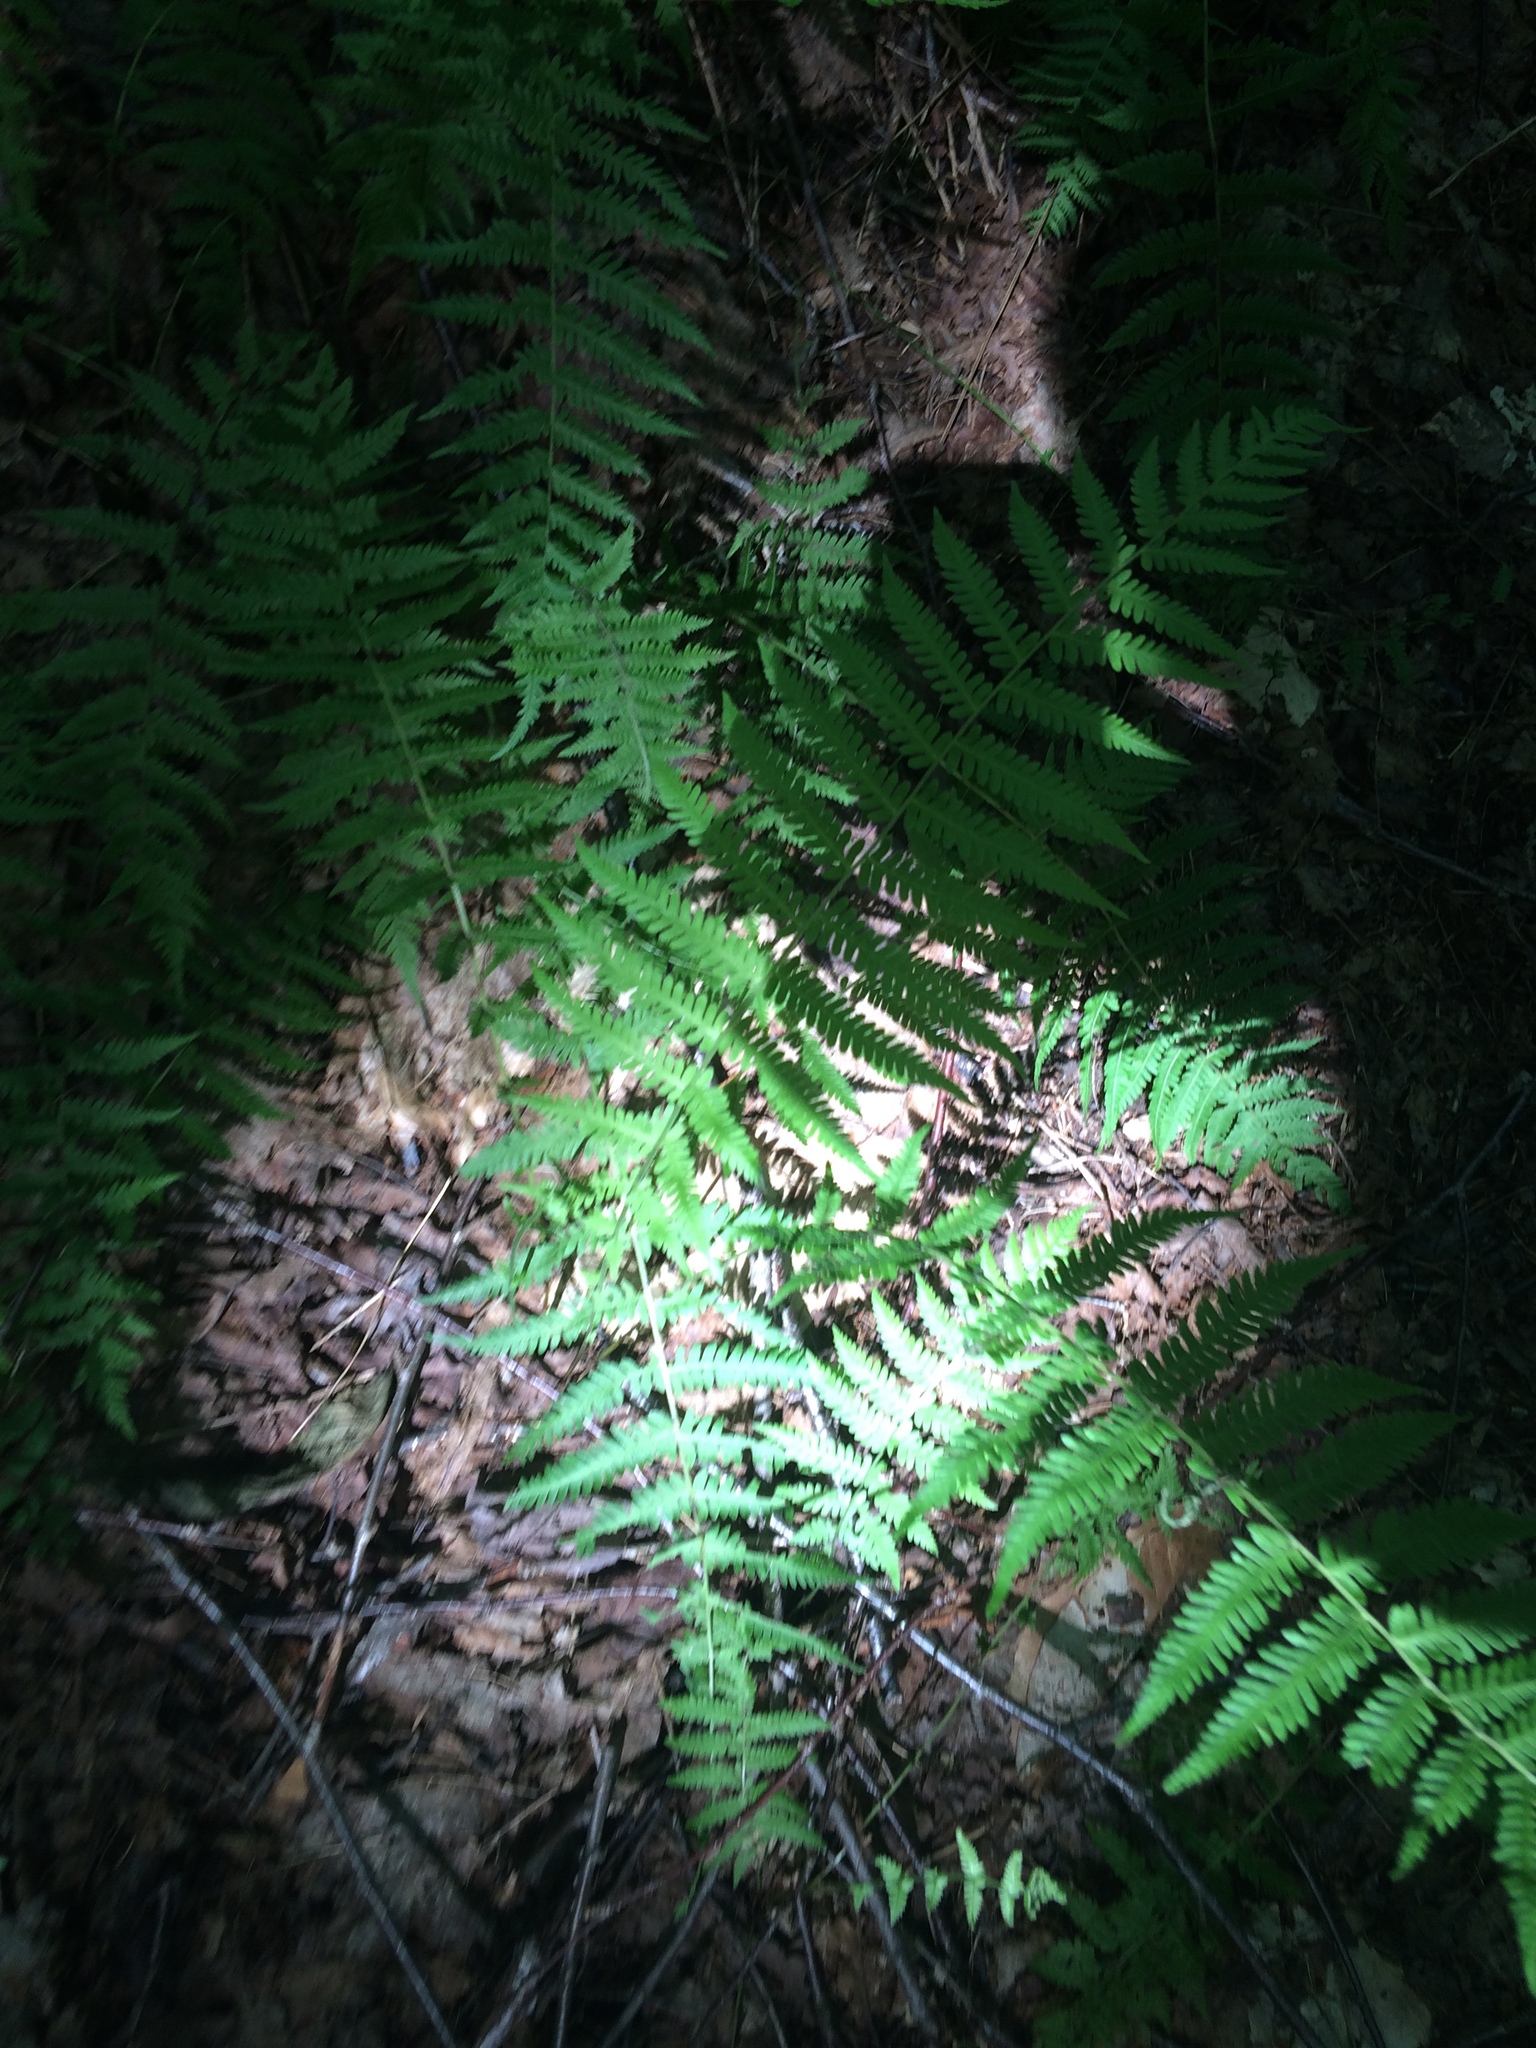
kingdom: Plantae
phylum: Tracheophyta
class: Polypodiopsida
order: Polypodiales
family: Thelypteridaceae
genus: Amauropelta
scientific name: Amauropelta noveboracensis
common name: New york fern
